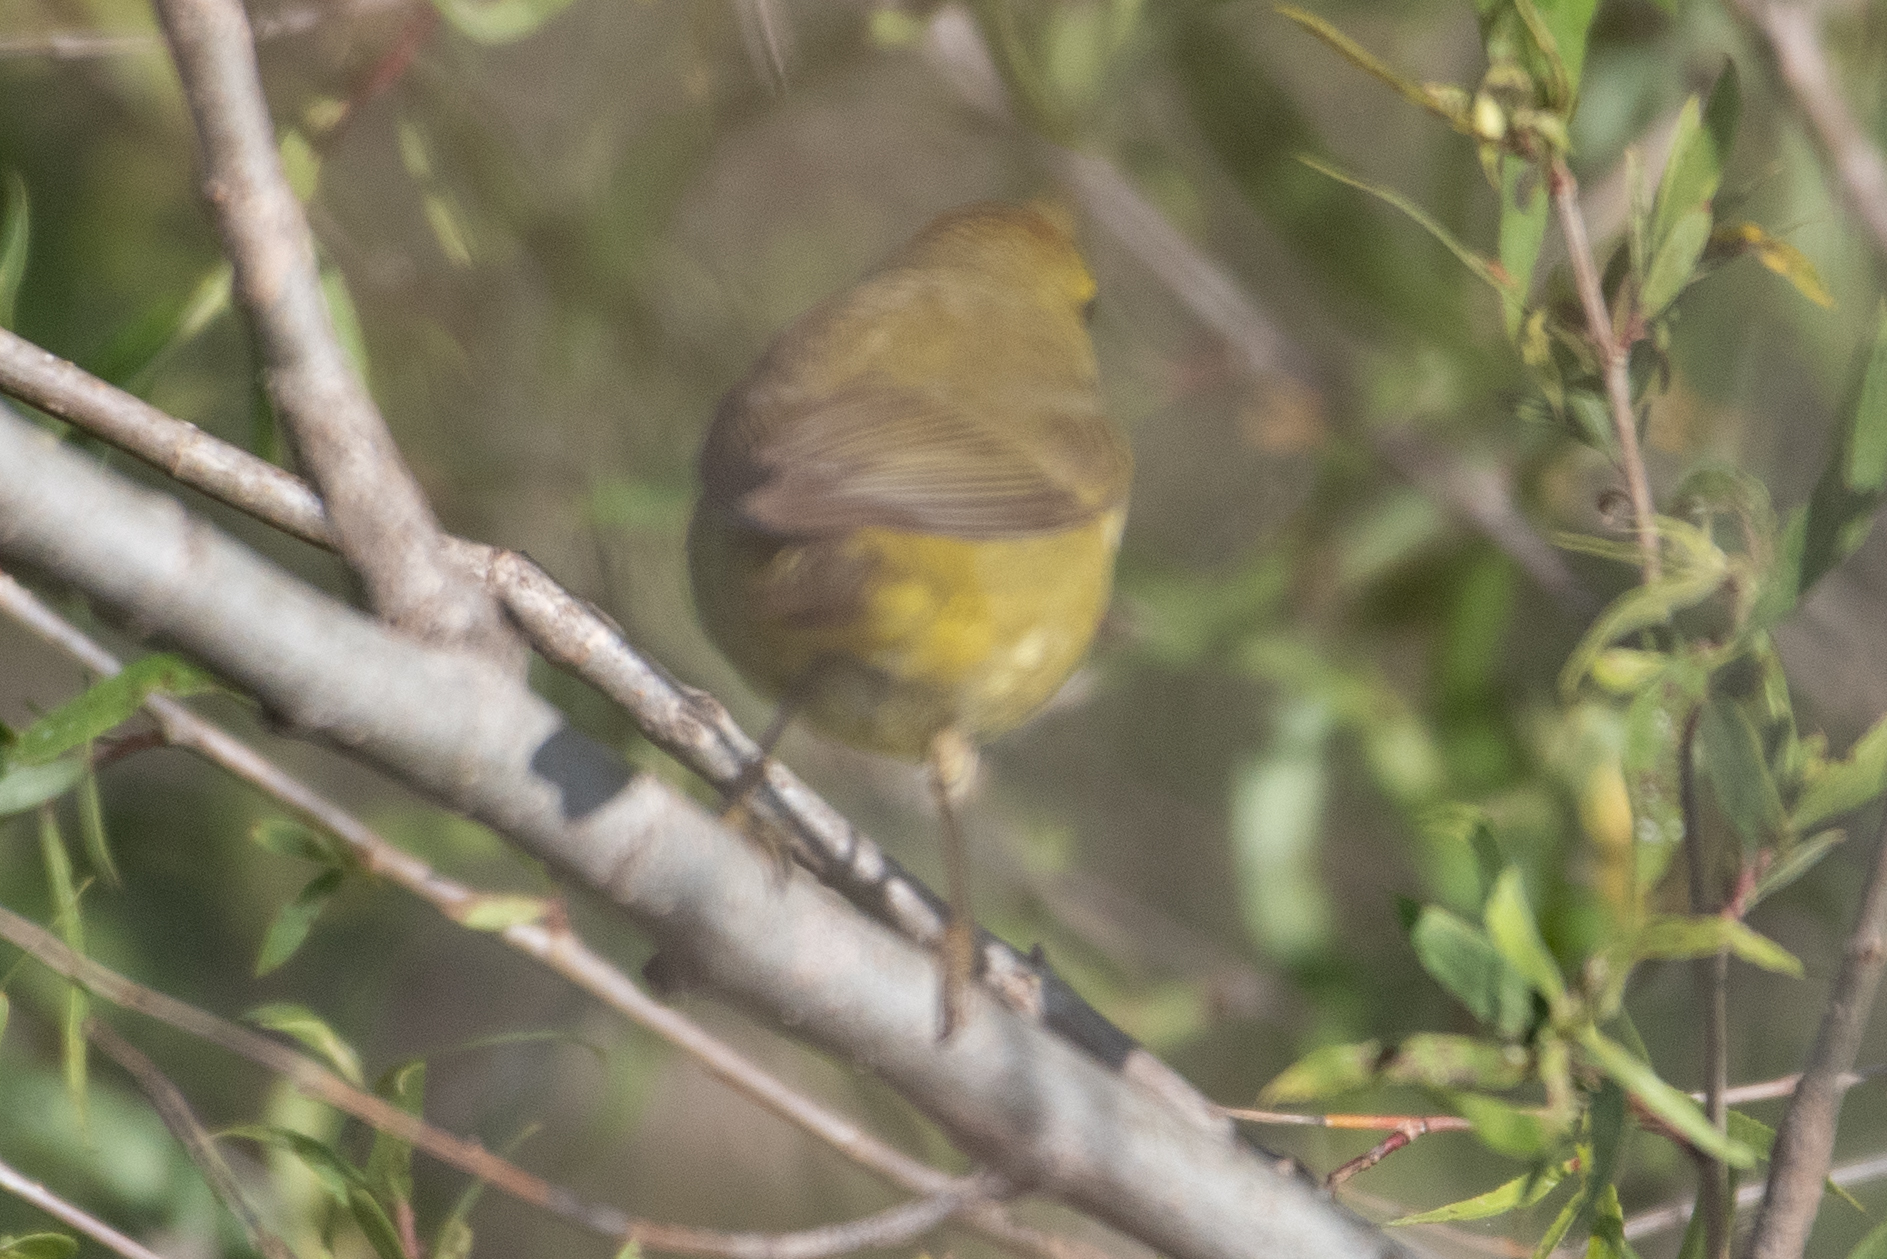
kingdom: Animalia
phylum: Chordata
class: Aves
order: Passeriformes
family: Parulidae
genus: Leiothlypis
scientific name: Leiothlypis celata
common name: Orange-crowned warbler
